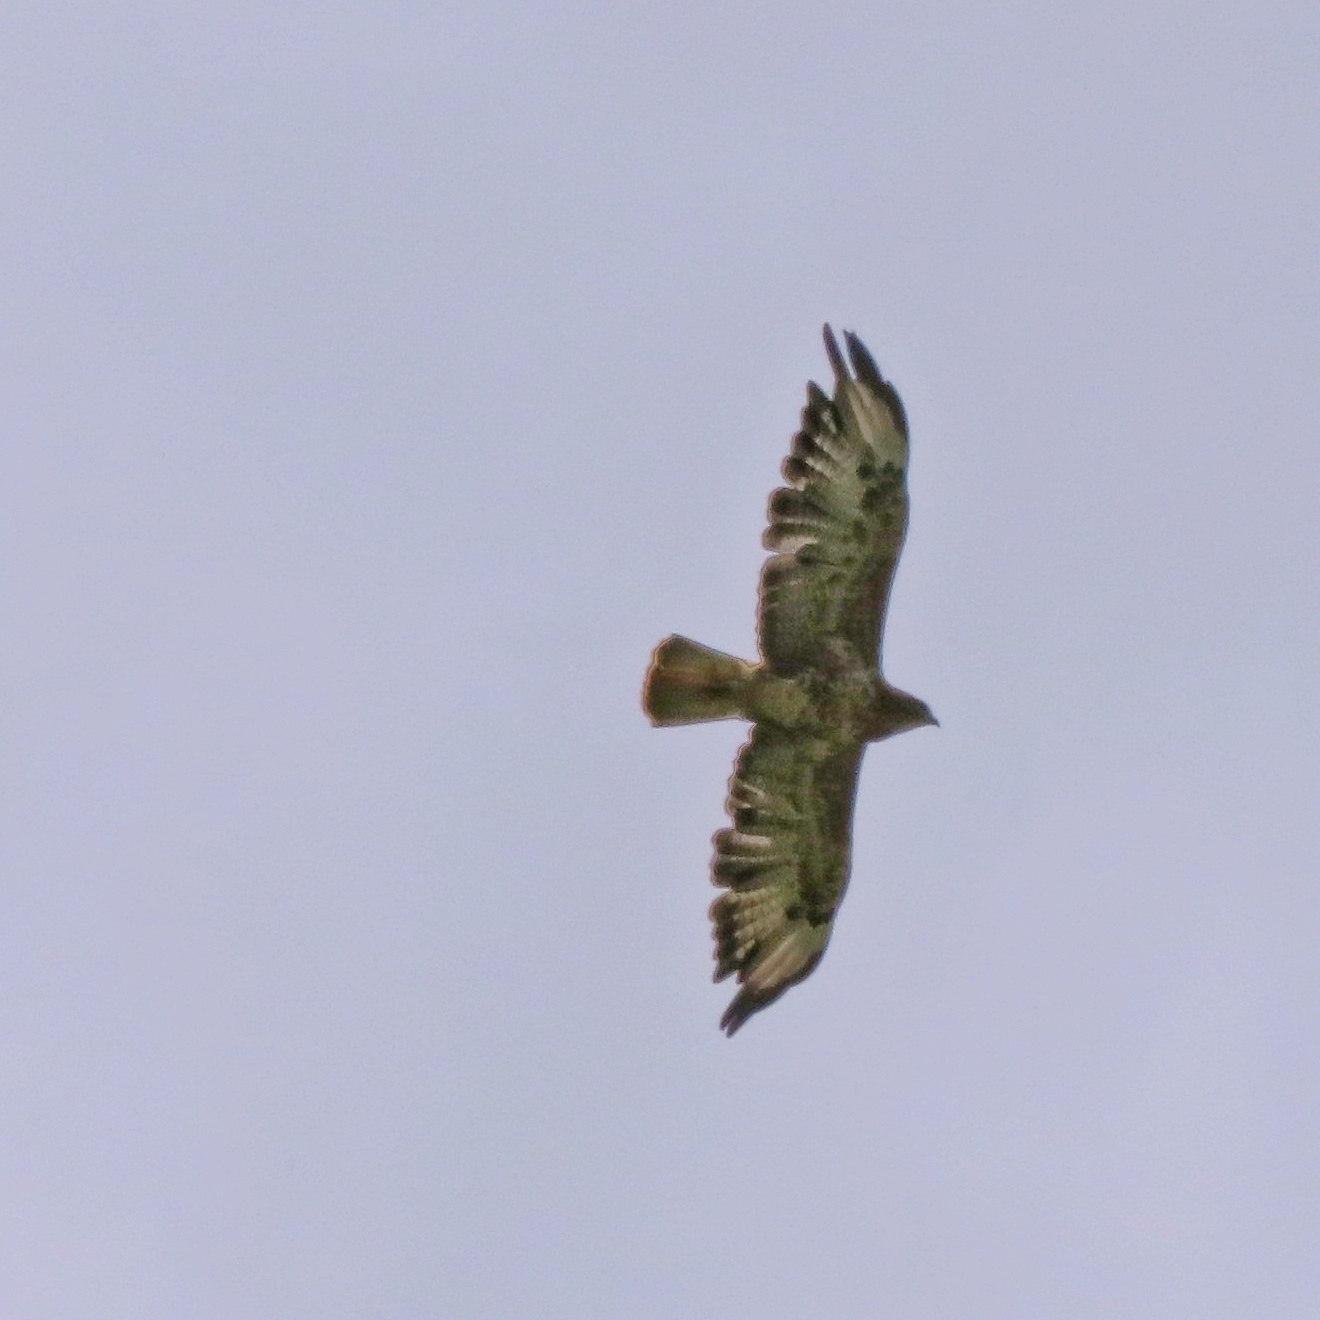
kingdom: Animalia
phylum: Chordata
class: Aves
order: Accipitriformes
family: Accipitridae
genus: Buteo
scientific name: Buteo buteo
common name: Common buzzard
